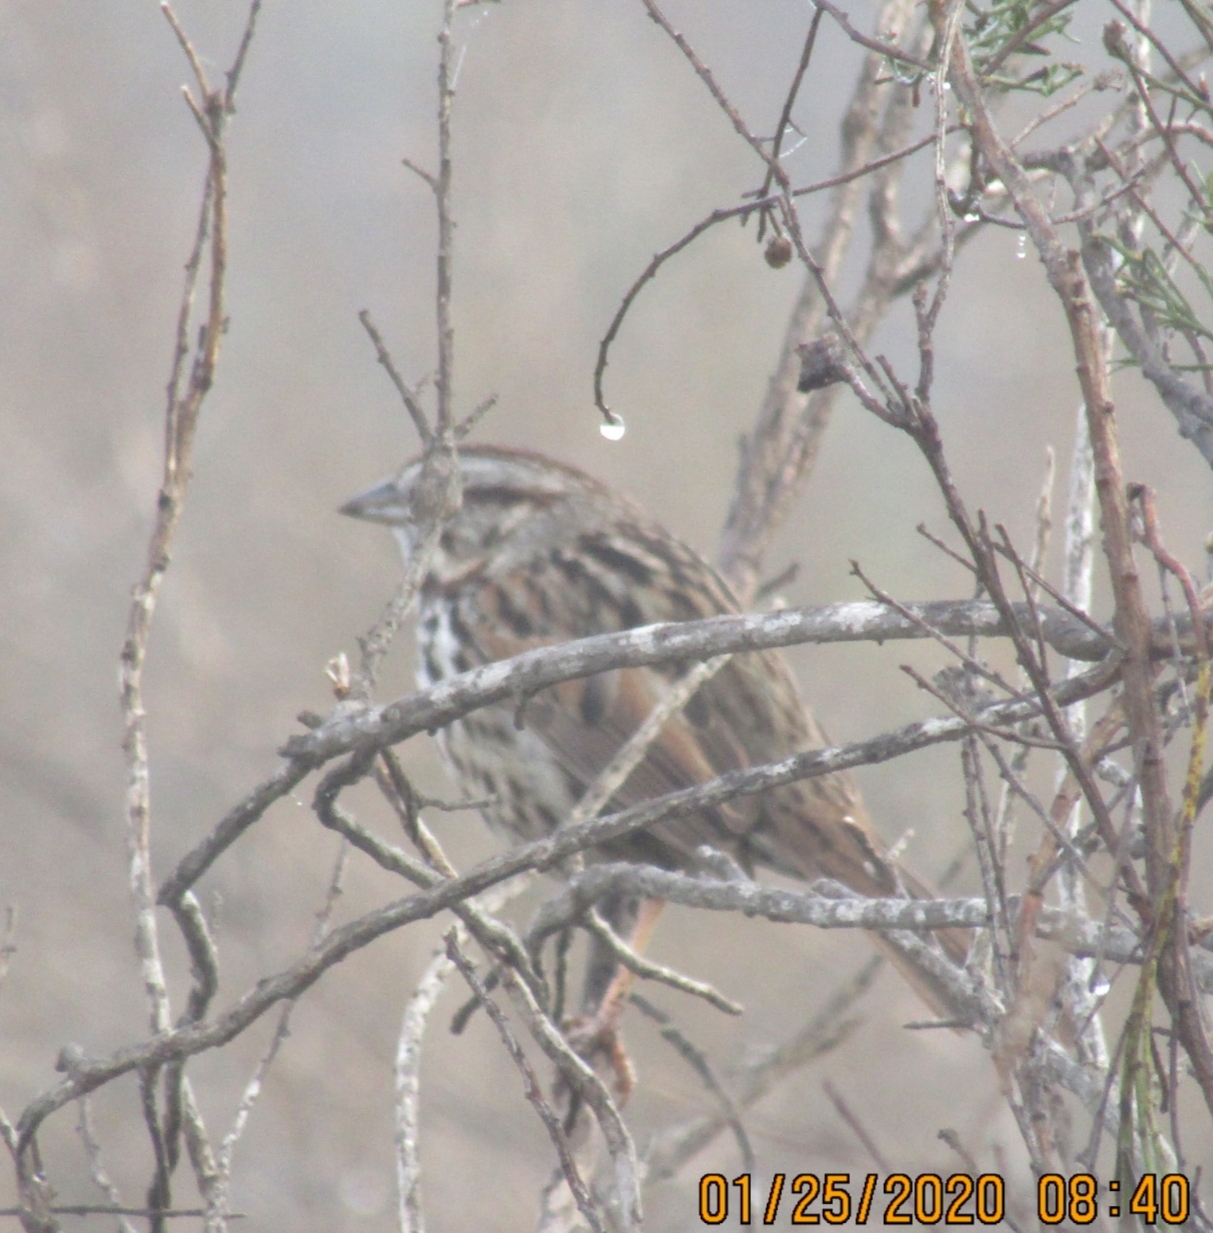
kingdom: Animalia
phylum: Chordata
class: Aves
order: Passeriformes
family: Passerellidae
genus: Melospiza
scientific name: Melospiza melodia
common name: Song sparrow
